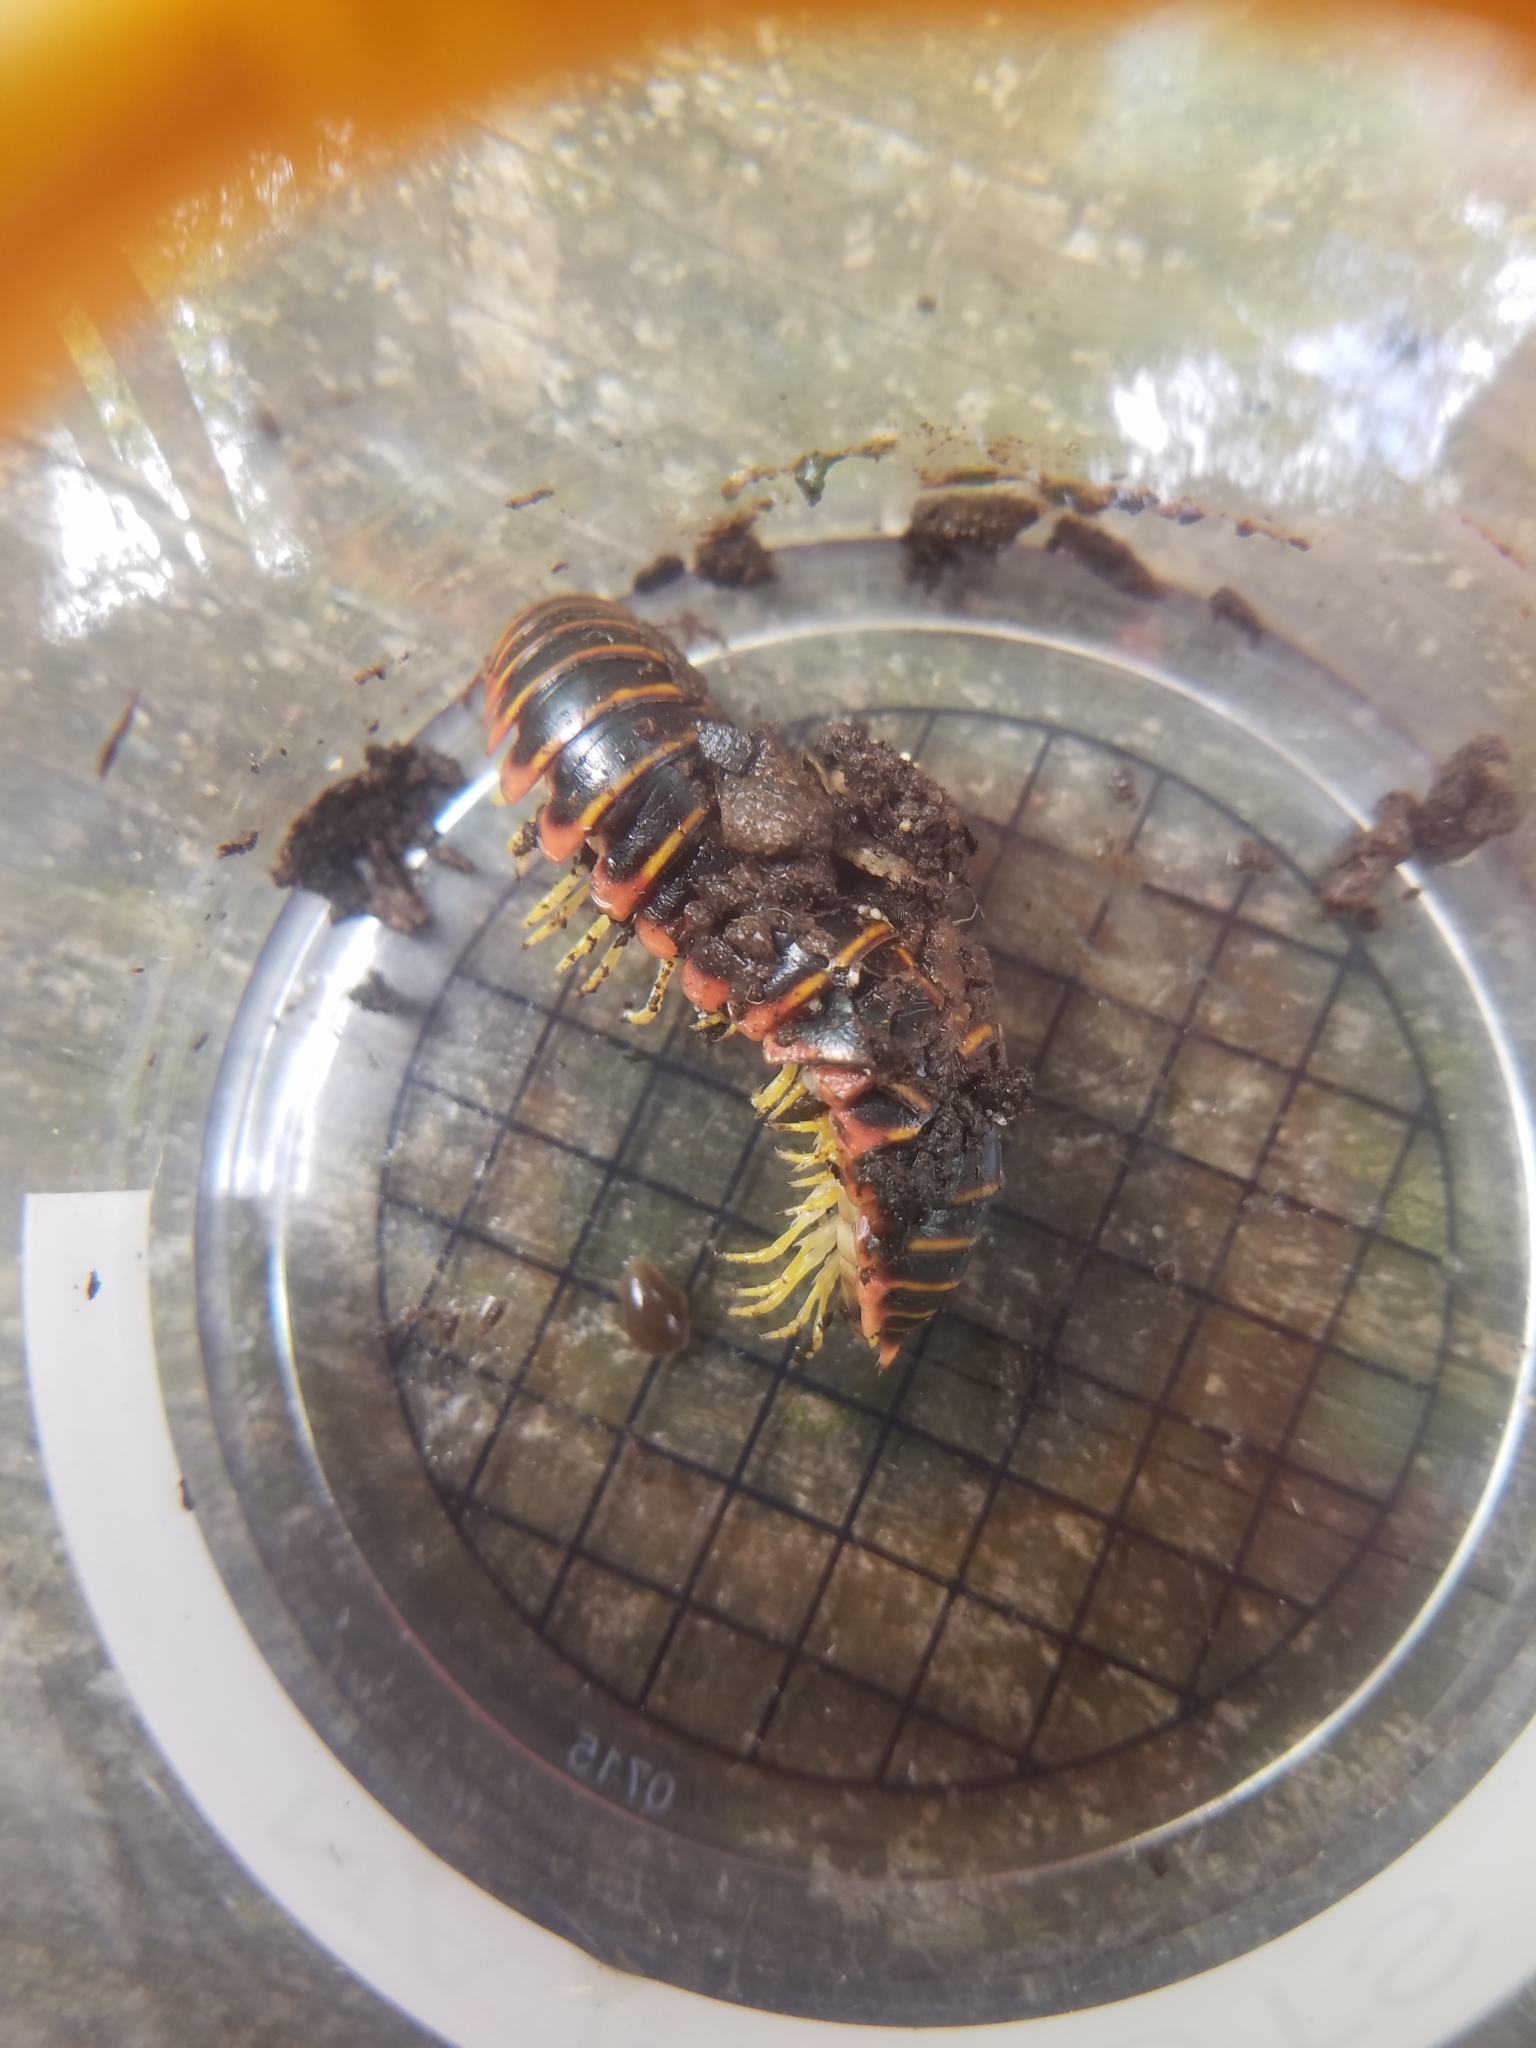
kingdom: Animalia
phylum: Arthropoda
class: Diplopoda
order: Polydesmida
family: Xystodesmidae
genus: Apheloria
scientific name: Apheloria virginiensis
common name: Black-and-gold flat millipede
